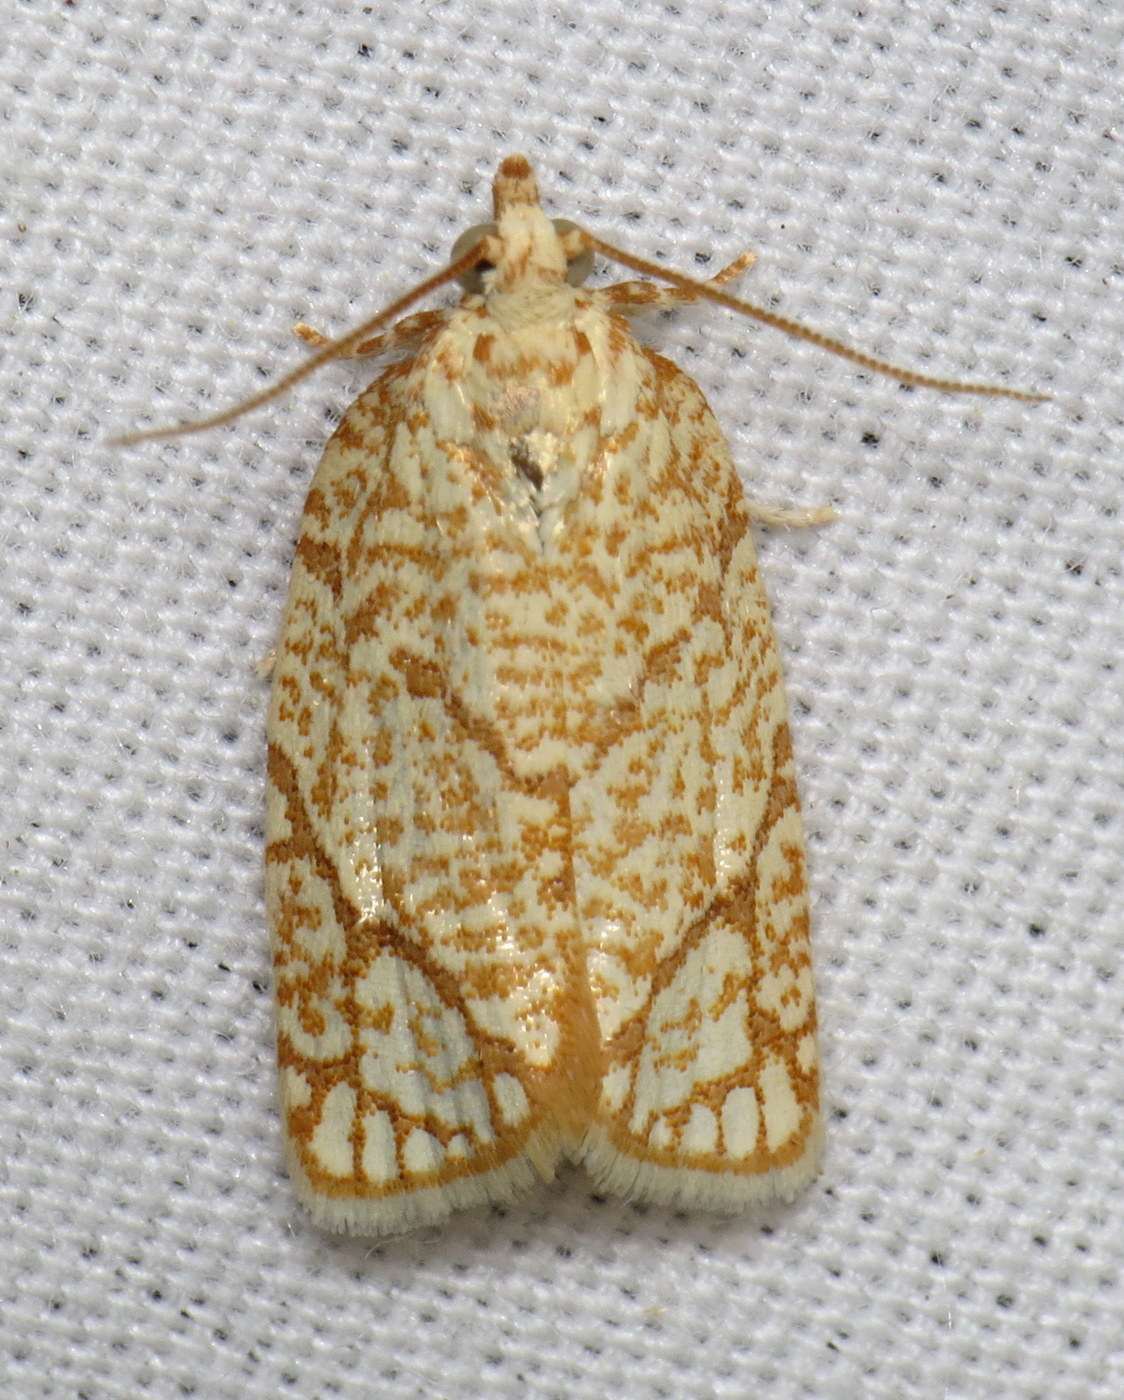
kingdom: Animalia
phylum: Arthropoda
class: Insecta
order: Lepidoptera
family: Tortricidae
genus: Argyrotaenia
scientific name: Argyrotaenia quercifoliana
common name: Yellow-winged oak leafroller moth
